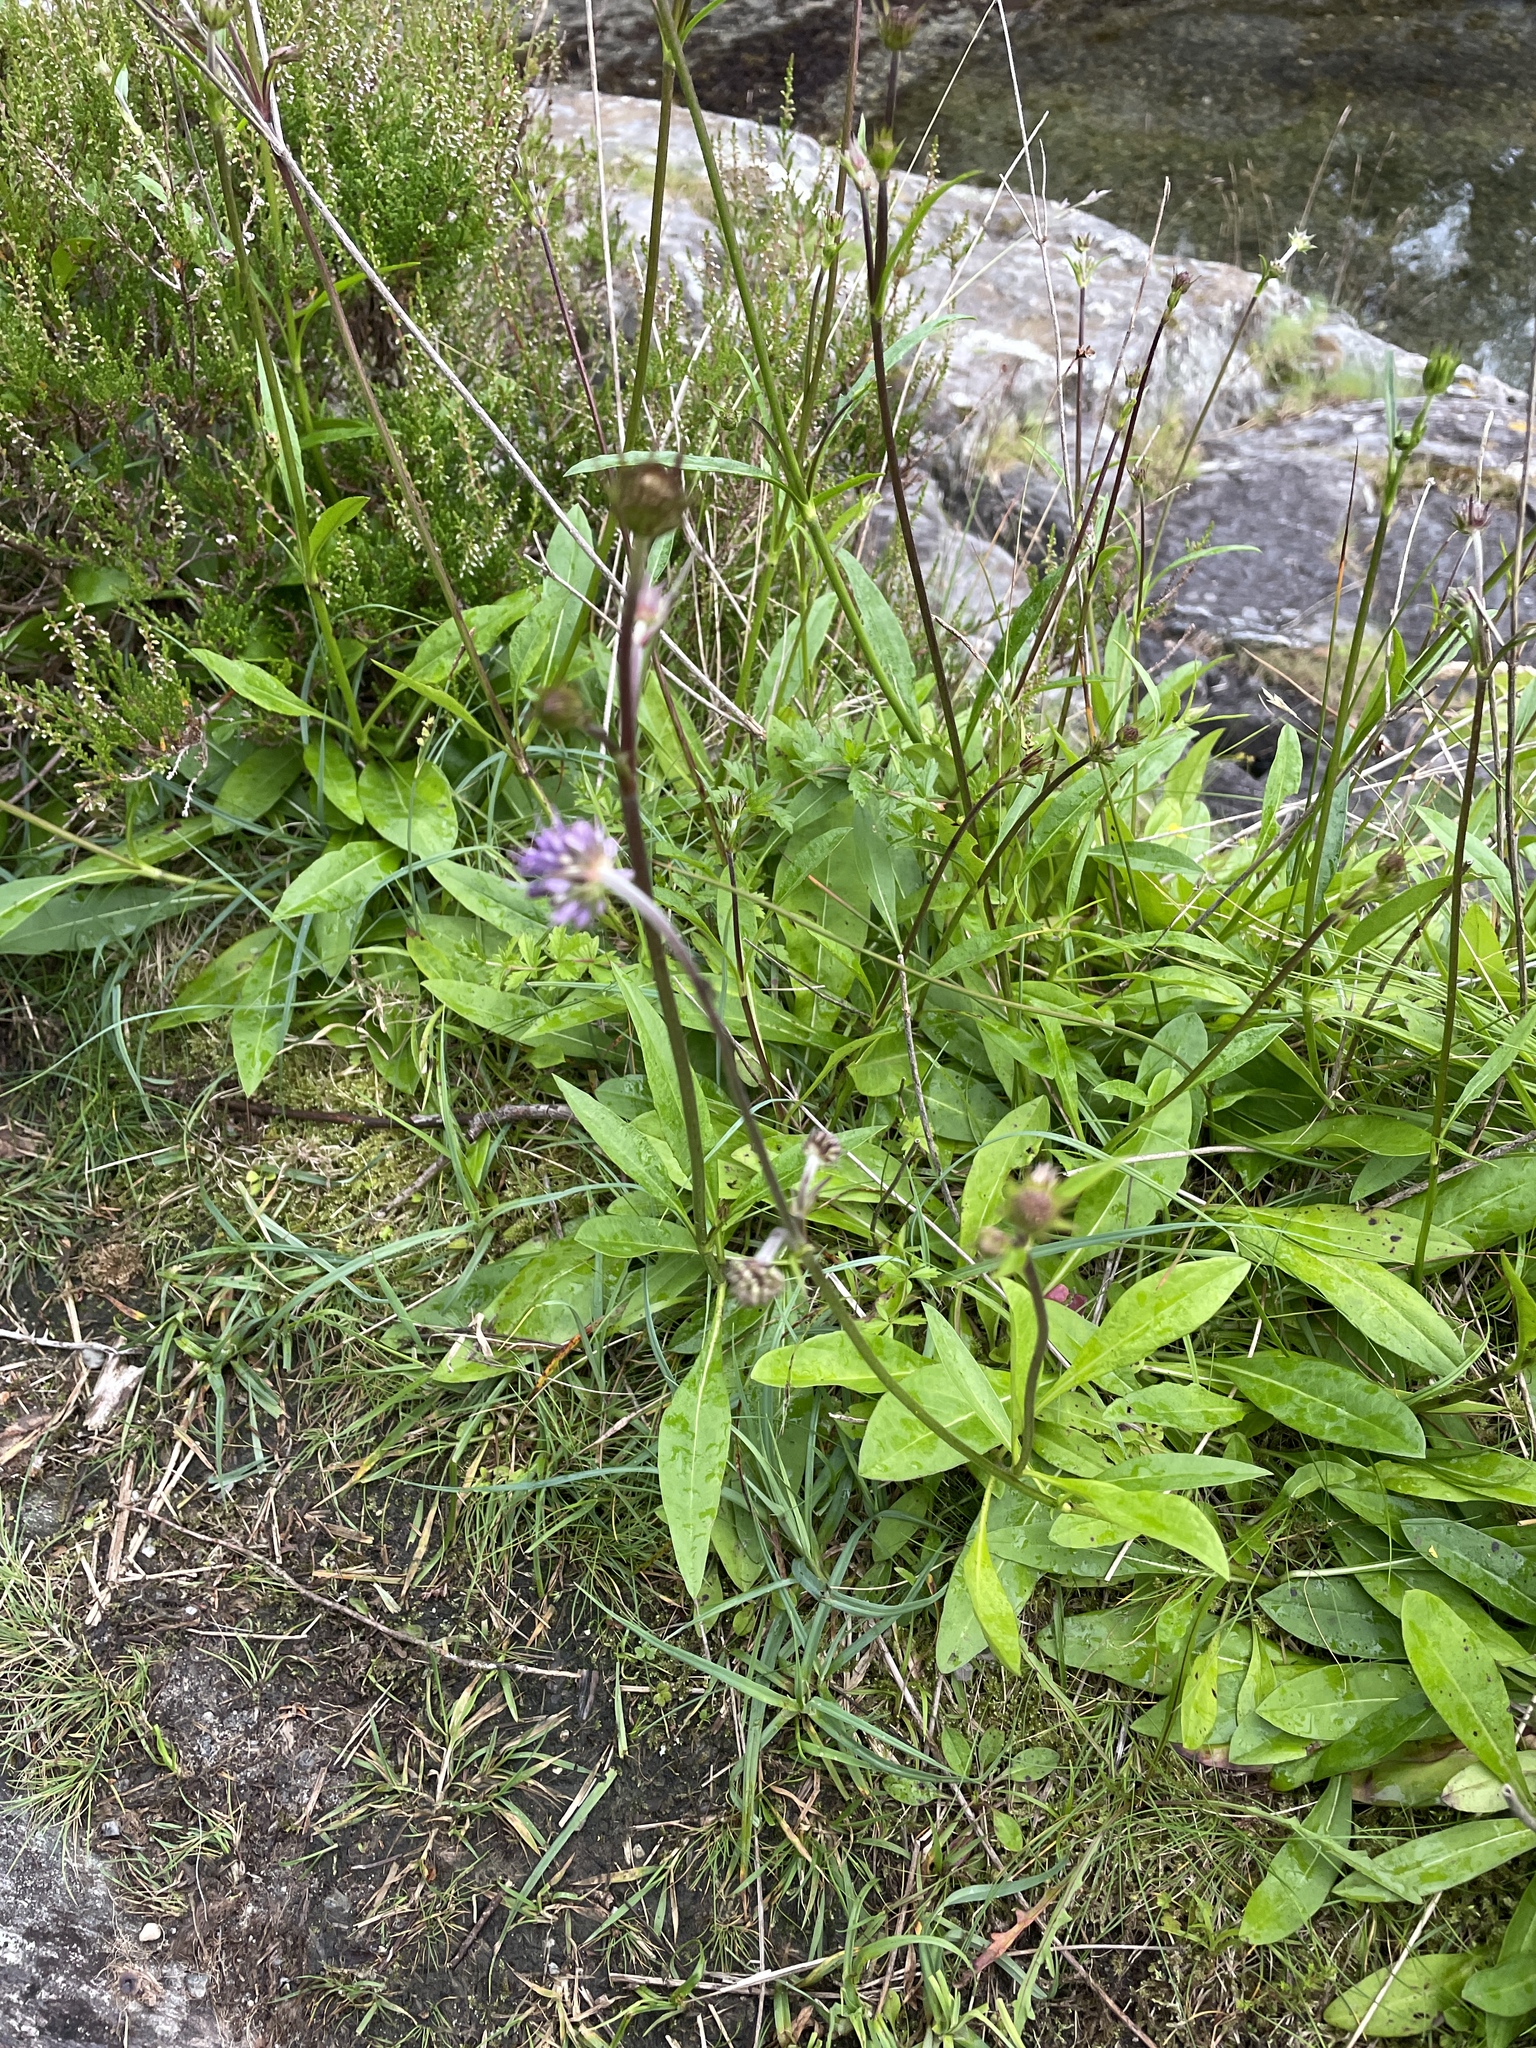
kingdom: Plantae
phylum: Tracheophyta
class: Magnoliopsida
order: Dipsacales
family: Caprifoliaceae
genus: Succisa
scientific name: Succisa pratensis
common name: Devil's-bit
